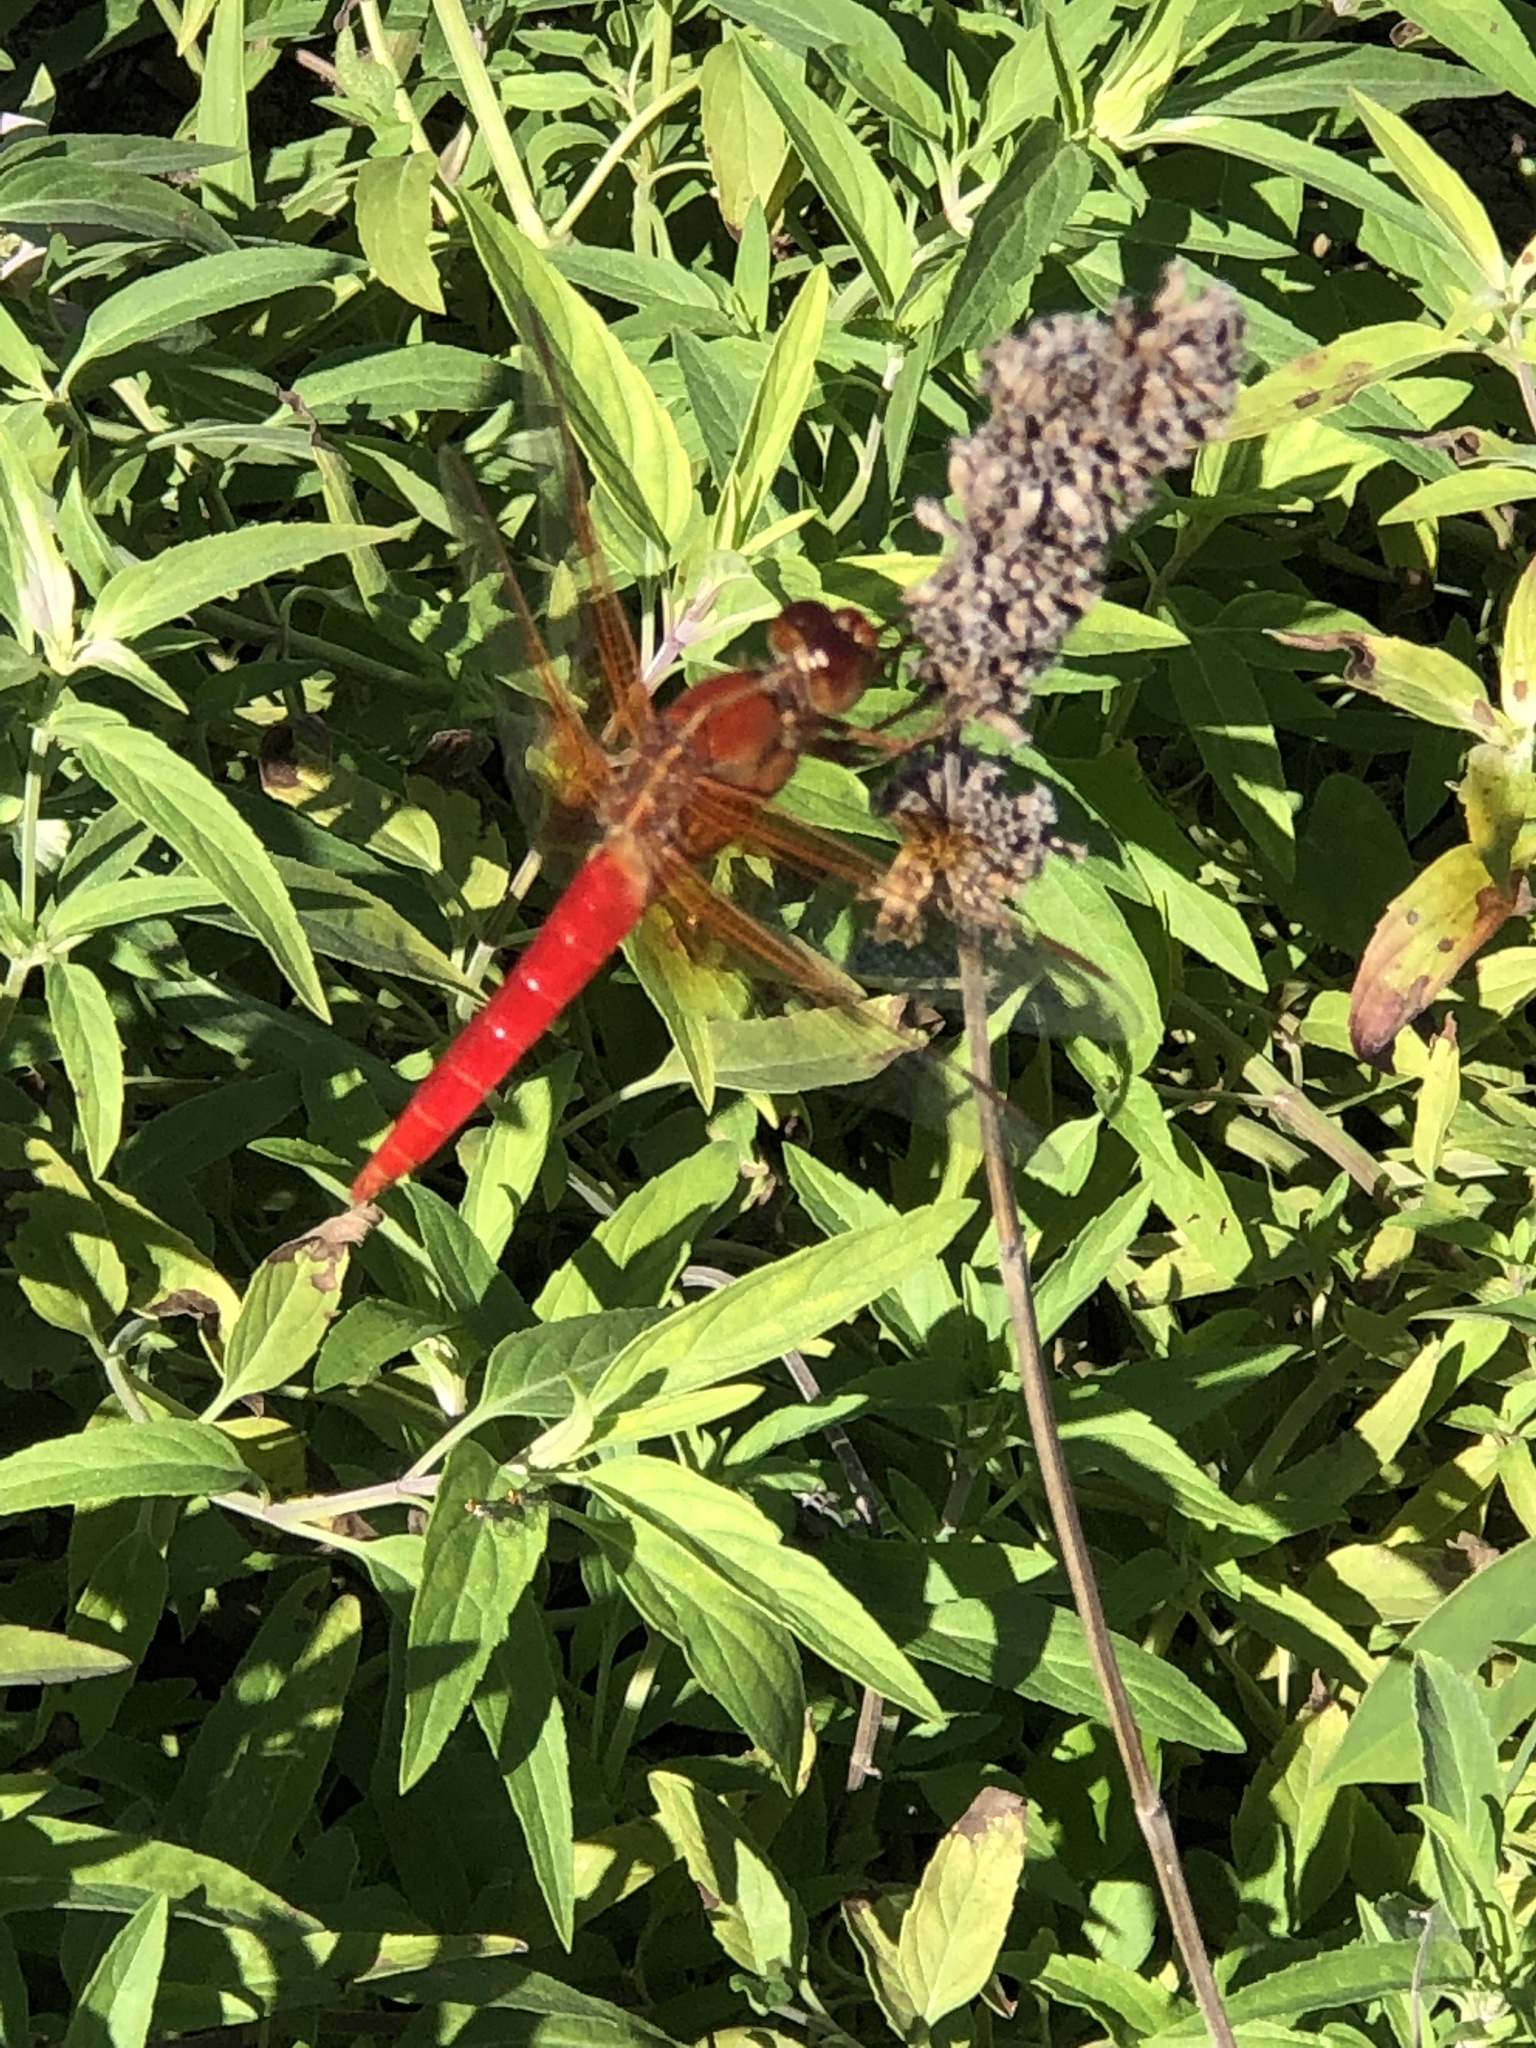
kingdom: Animalia
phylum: Arthropoda
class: Insecta
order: Odonata
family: Libellulidae
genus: Libellula
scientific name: Libellula croceipennis
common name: Neon skimmer
